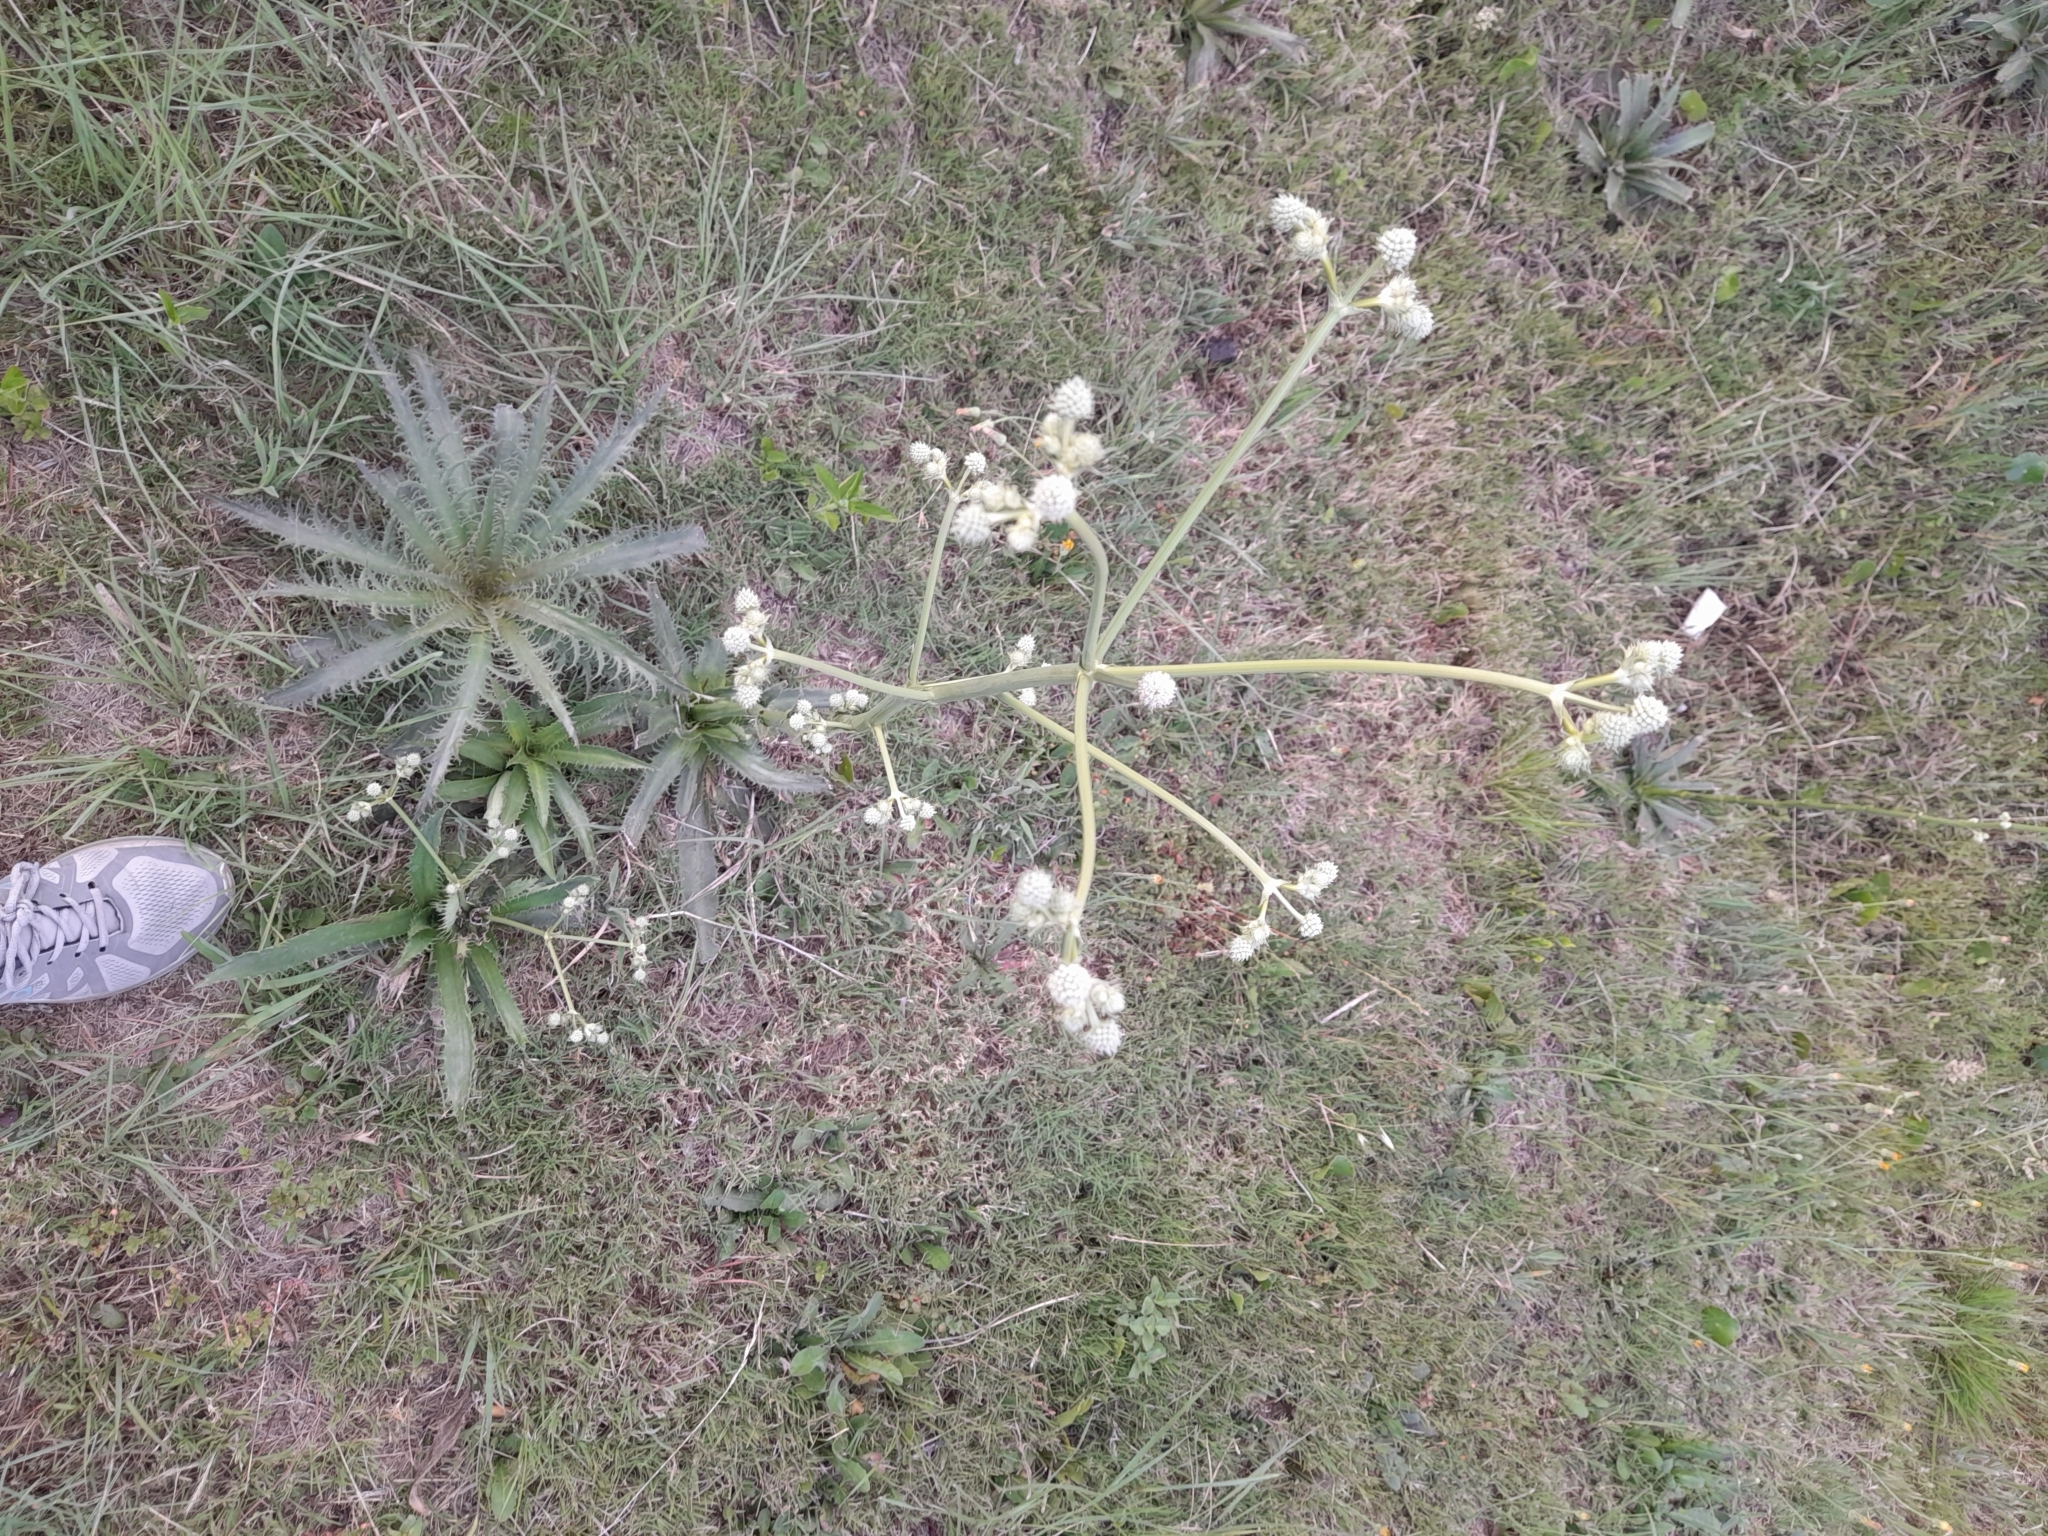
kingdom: Plantae
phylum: Tracheophyta
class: Magnoliopsida
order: Apiales
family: Apiaceae
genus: Eryngium
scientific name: Eryngium serra
